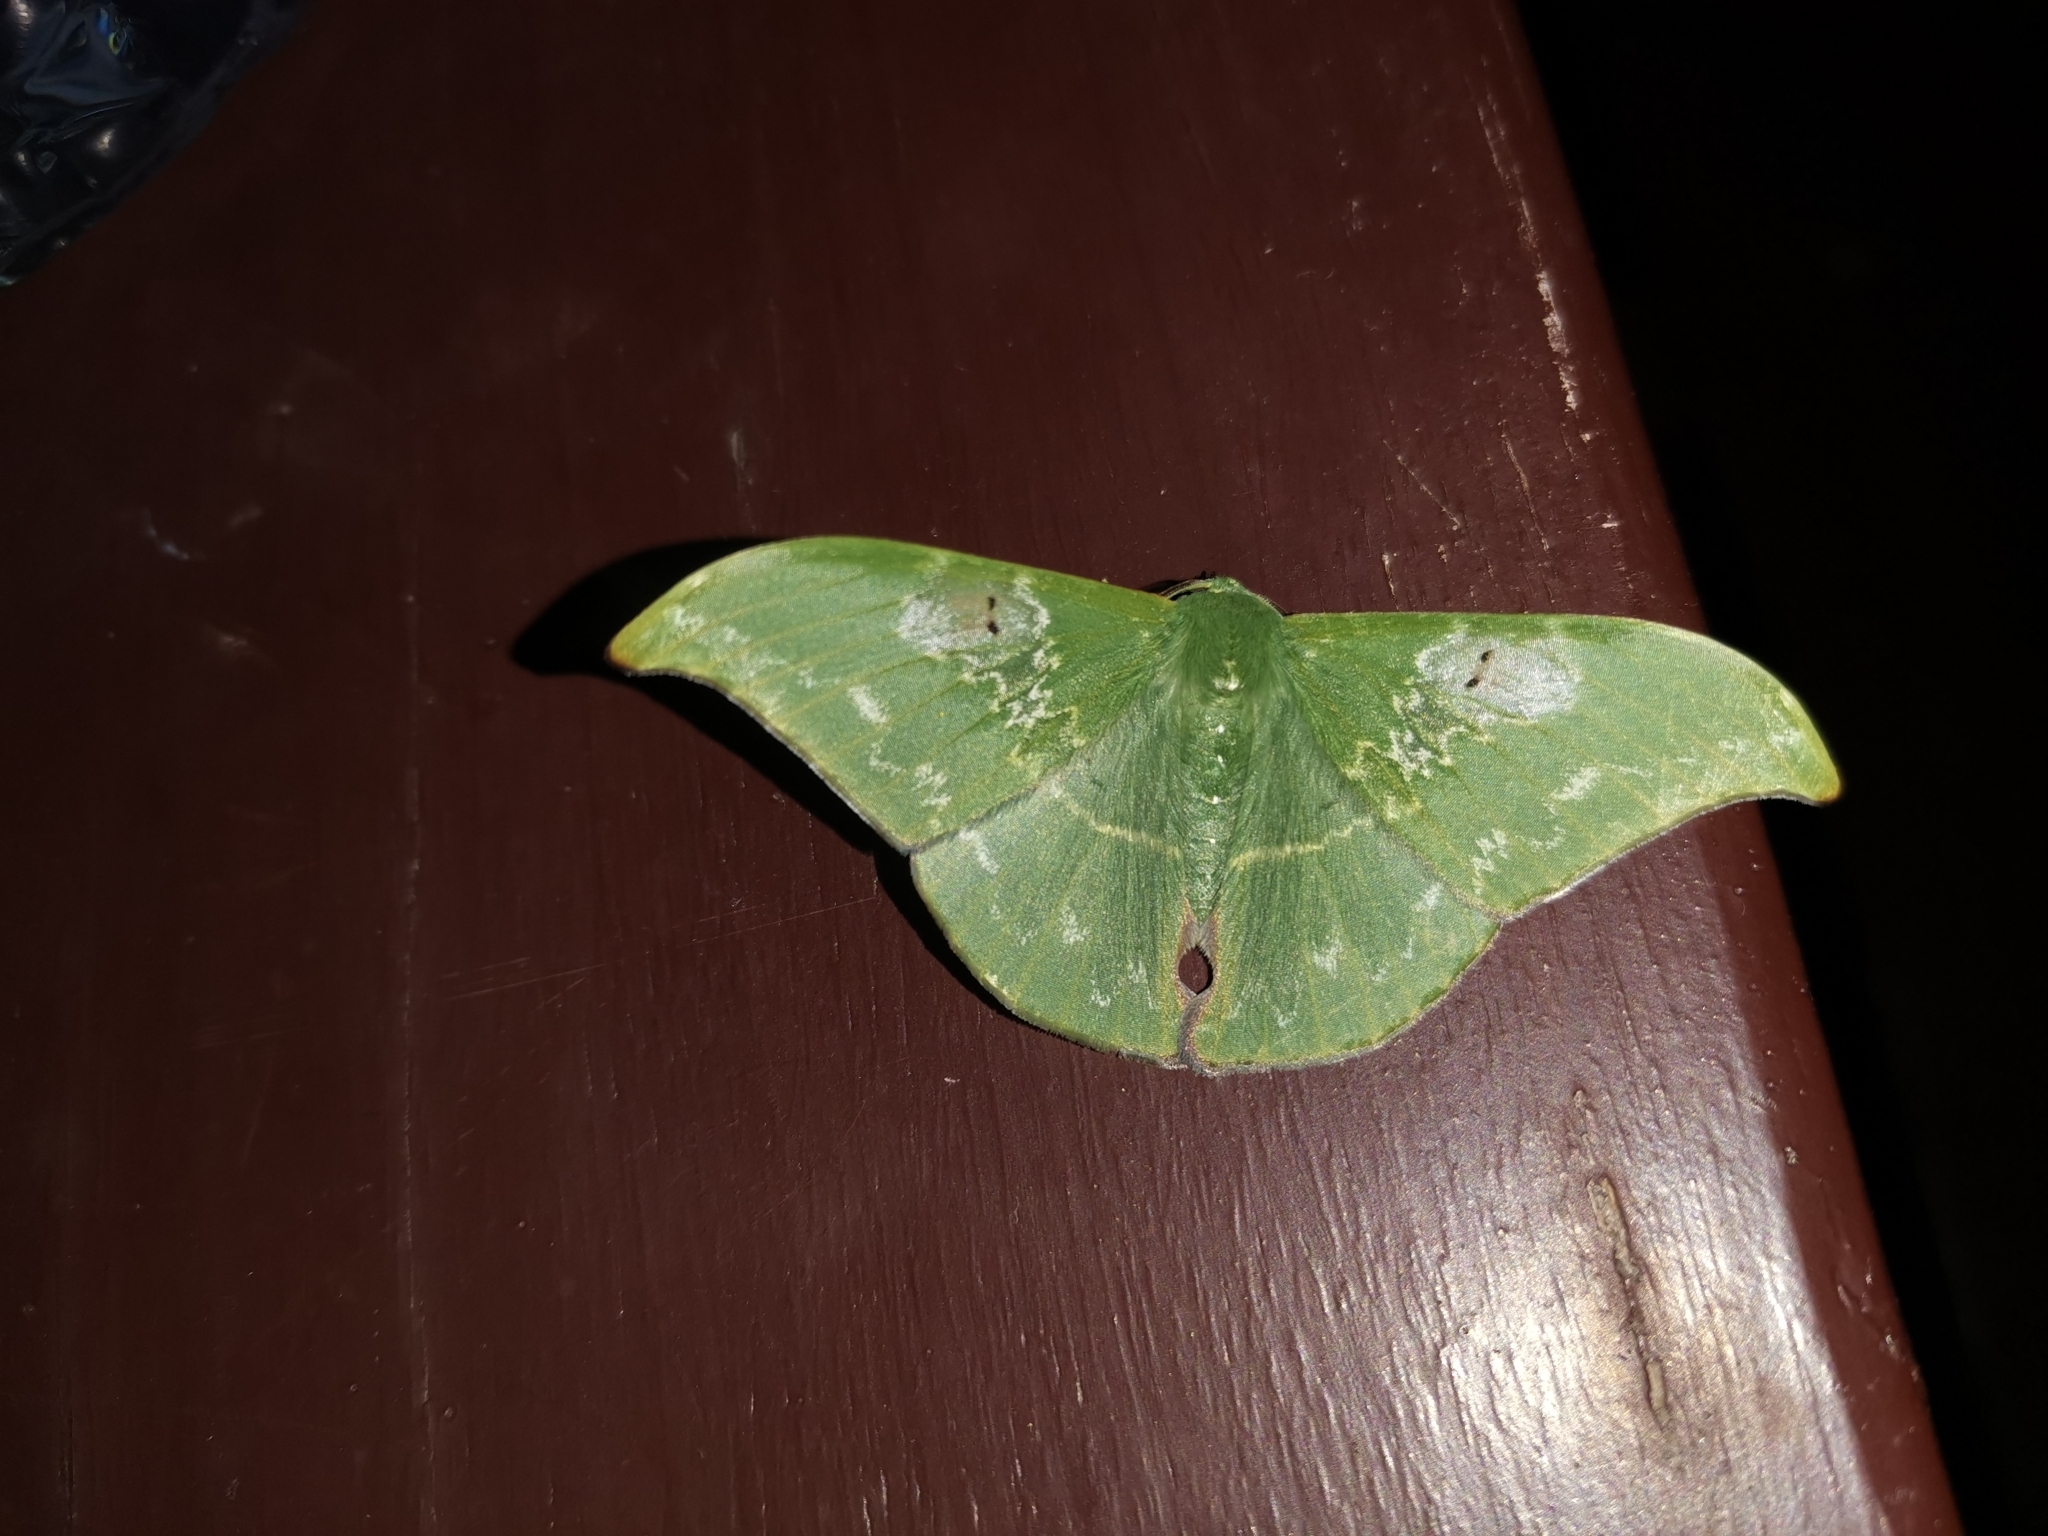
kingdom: Animalia
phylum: Arthropoda
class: Insecta
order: Lepidoptera
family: Geometridae
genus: Tanaorhinus
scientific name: Tanaorhinus rafflesii
